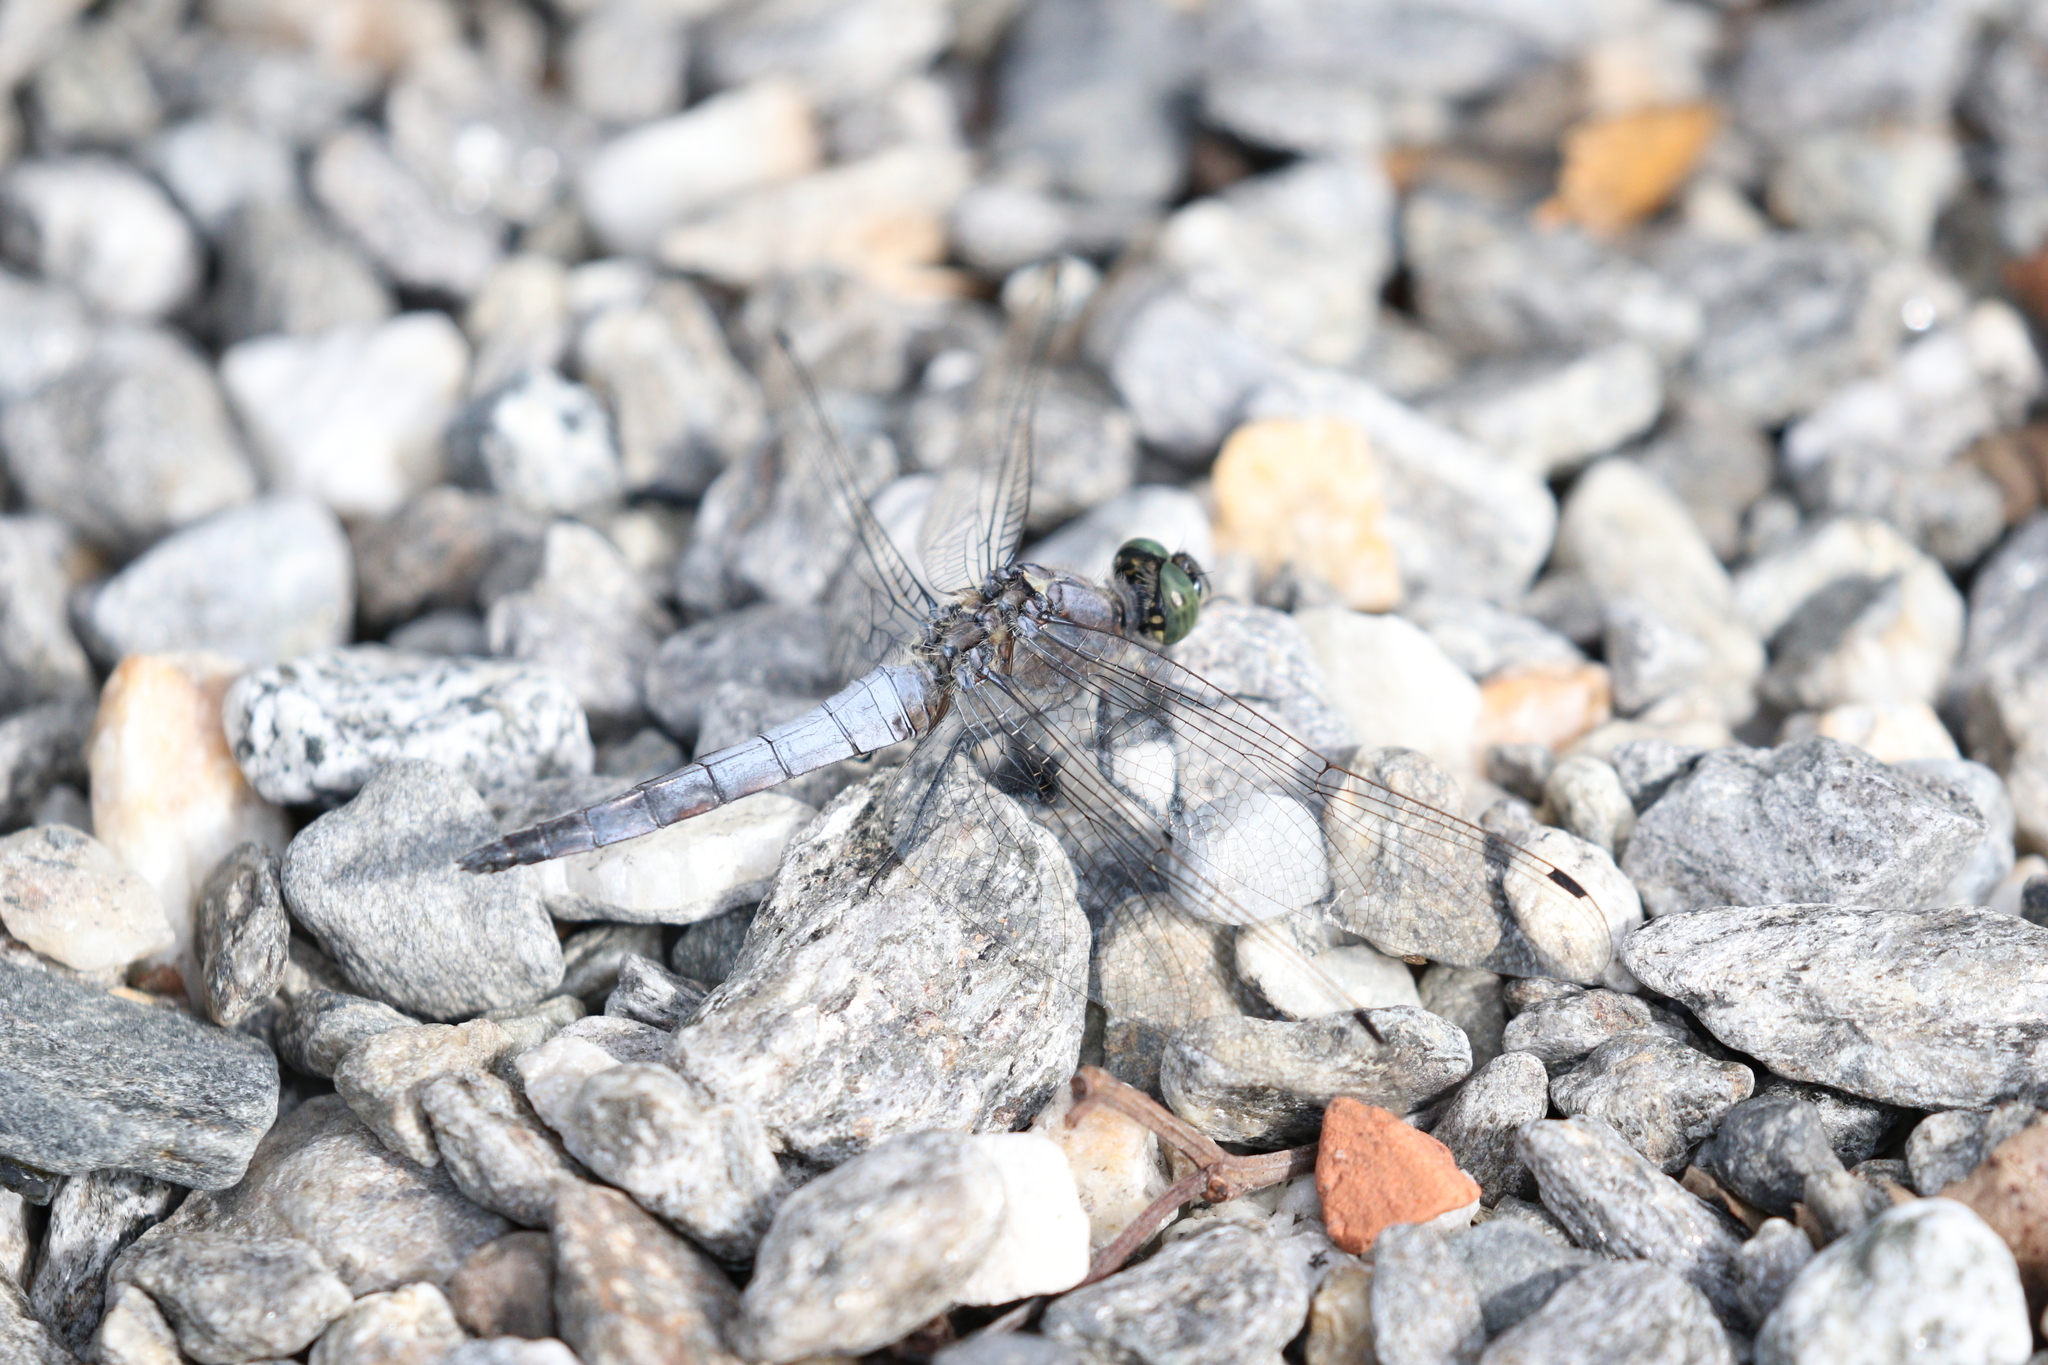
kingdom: Animalia
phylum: Arthropoda
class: Insecta
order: Odonata
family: Libellulidae
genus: Orthetrum
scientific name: Orthetrum cancellatum
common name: Black-tailed skimmer
